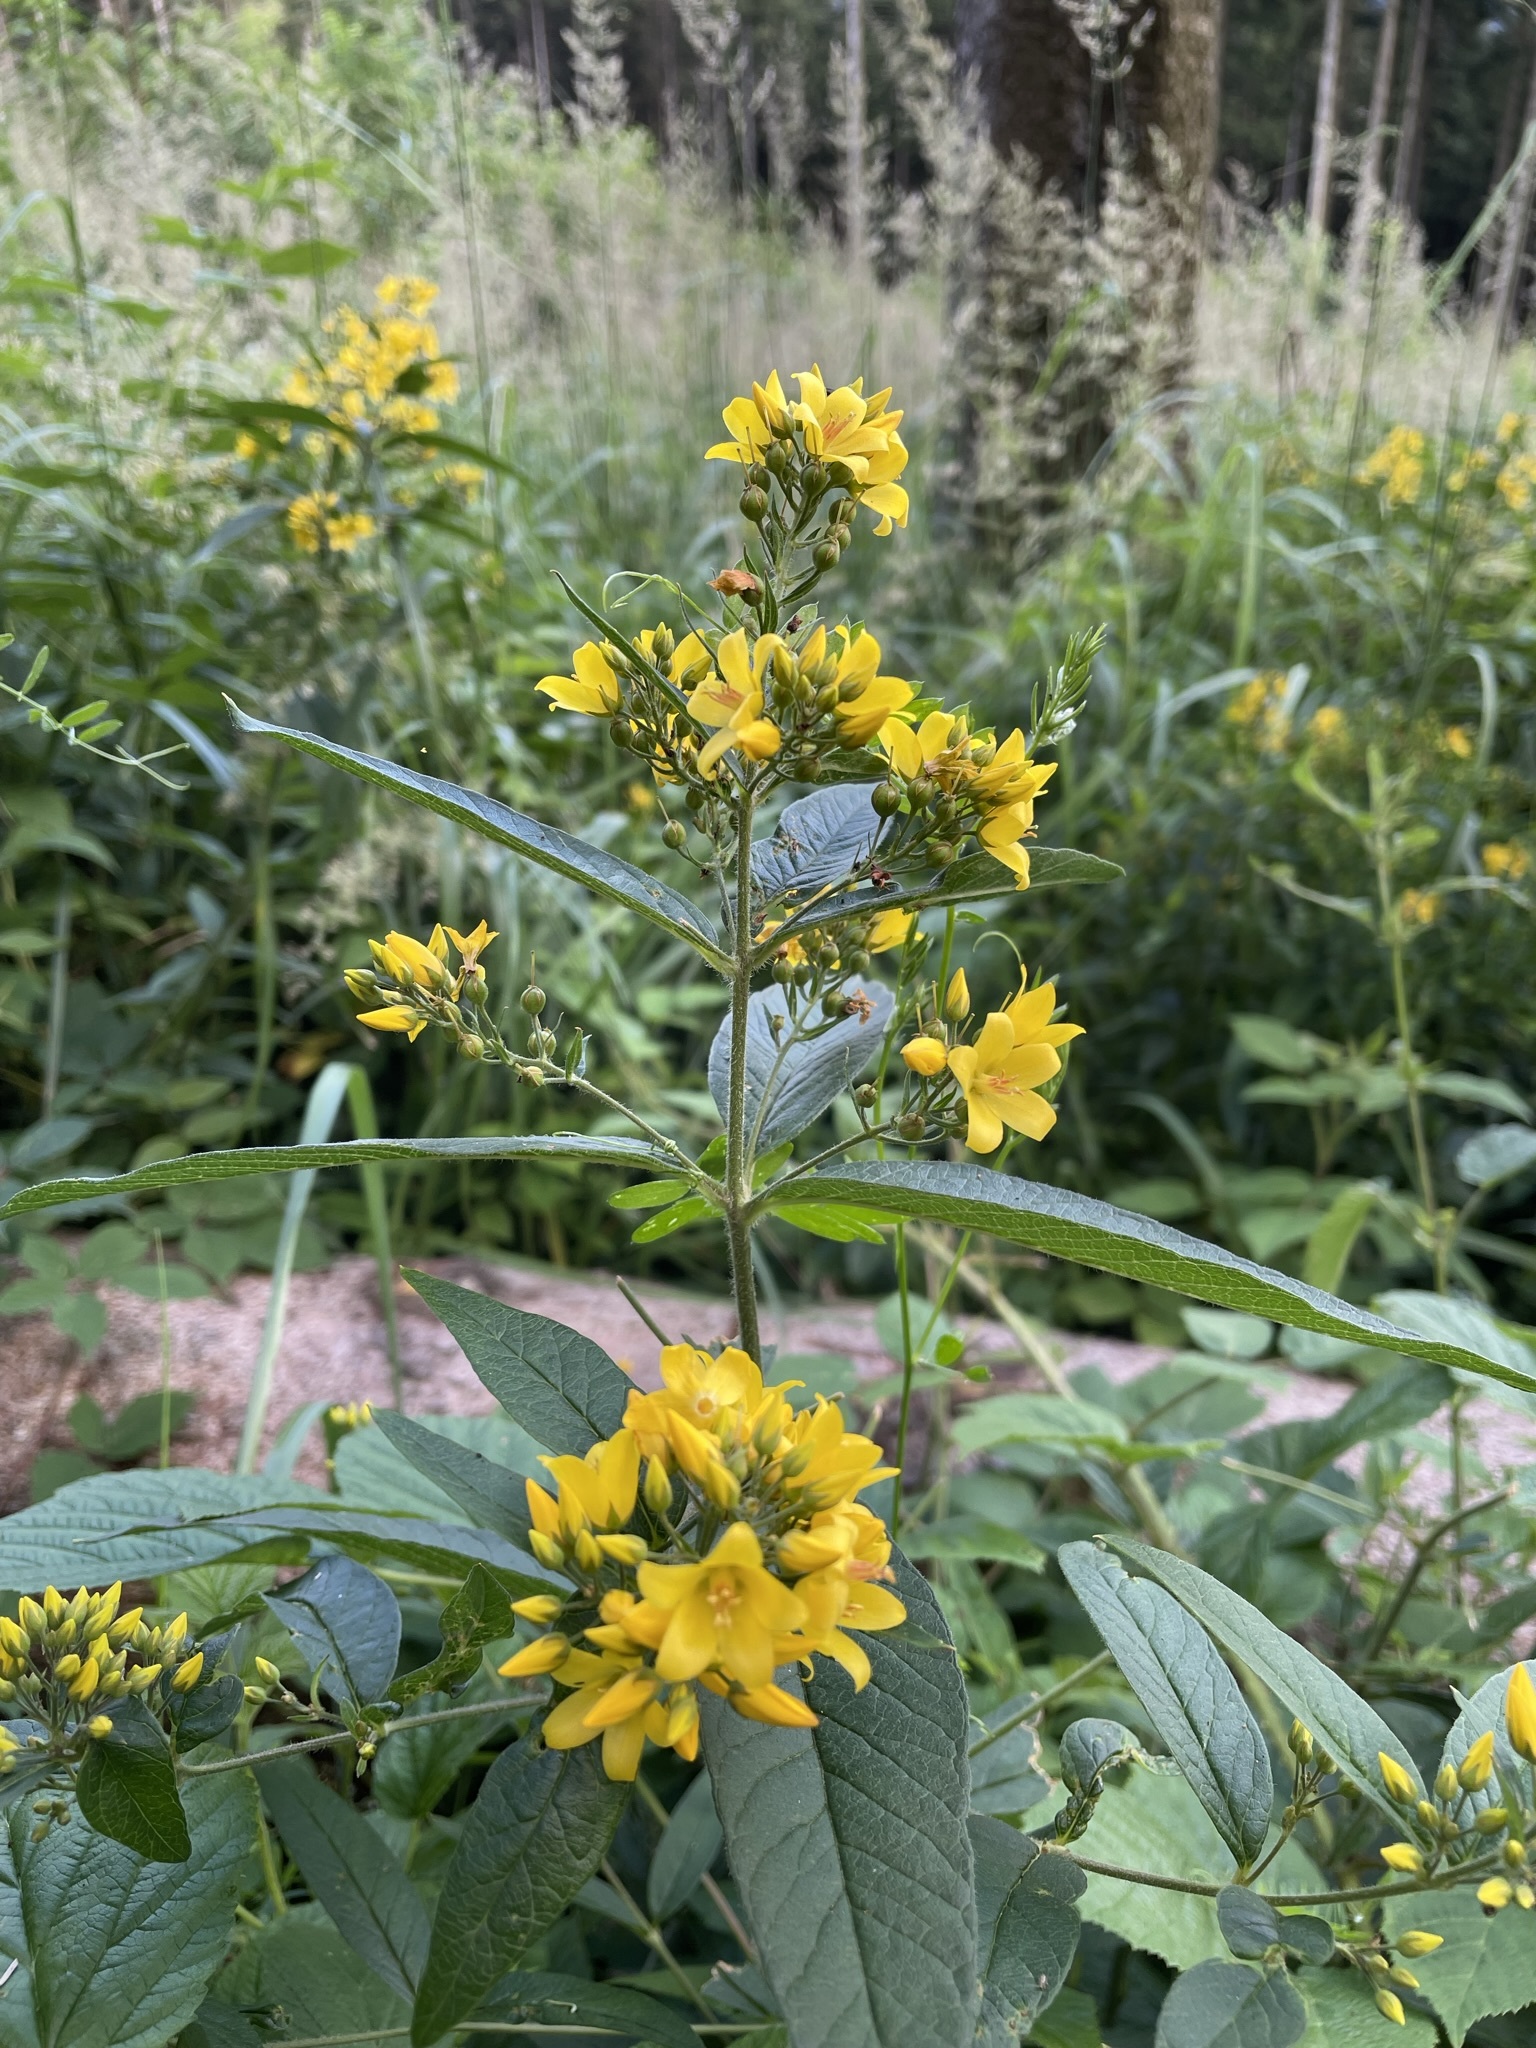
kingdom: Plantae
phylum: Tracheophyta
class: Magnoliopsida
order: Ericales
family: Primulaceae
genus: Lysimachia
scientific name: Lysimachia vulgaris
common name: Yellow loosestrife
